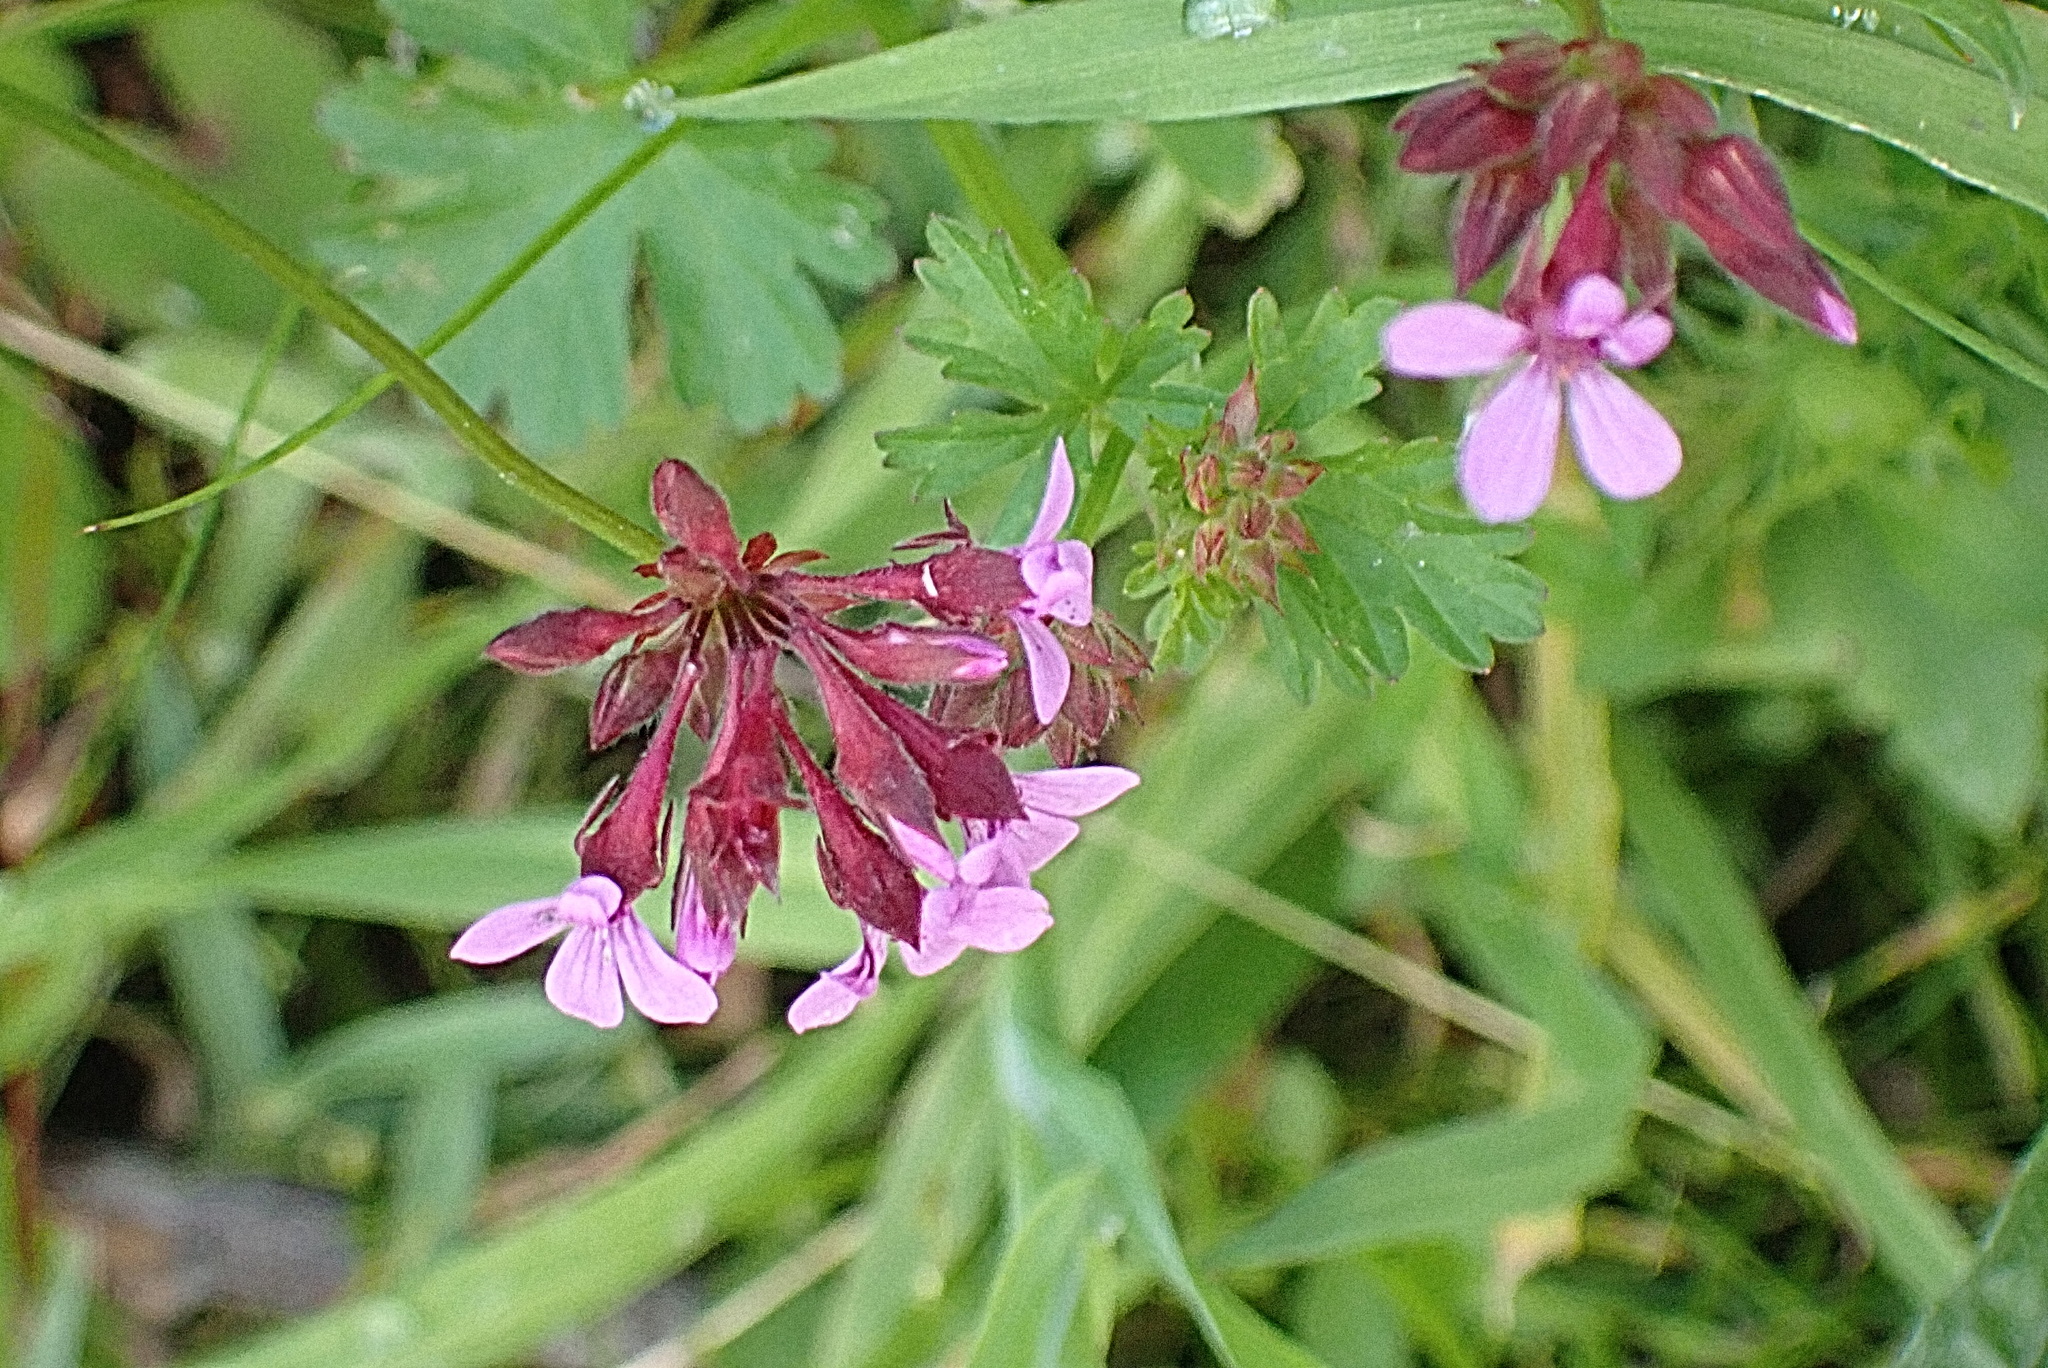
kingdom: Plantae
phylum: Tracheophyta
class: Magnoliopsida
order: Geraniales
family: Geraniaceae
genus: Pelargonium
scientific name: Pelargonium grossularioides
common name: Gooseberry geranium
